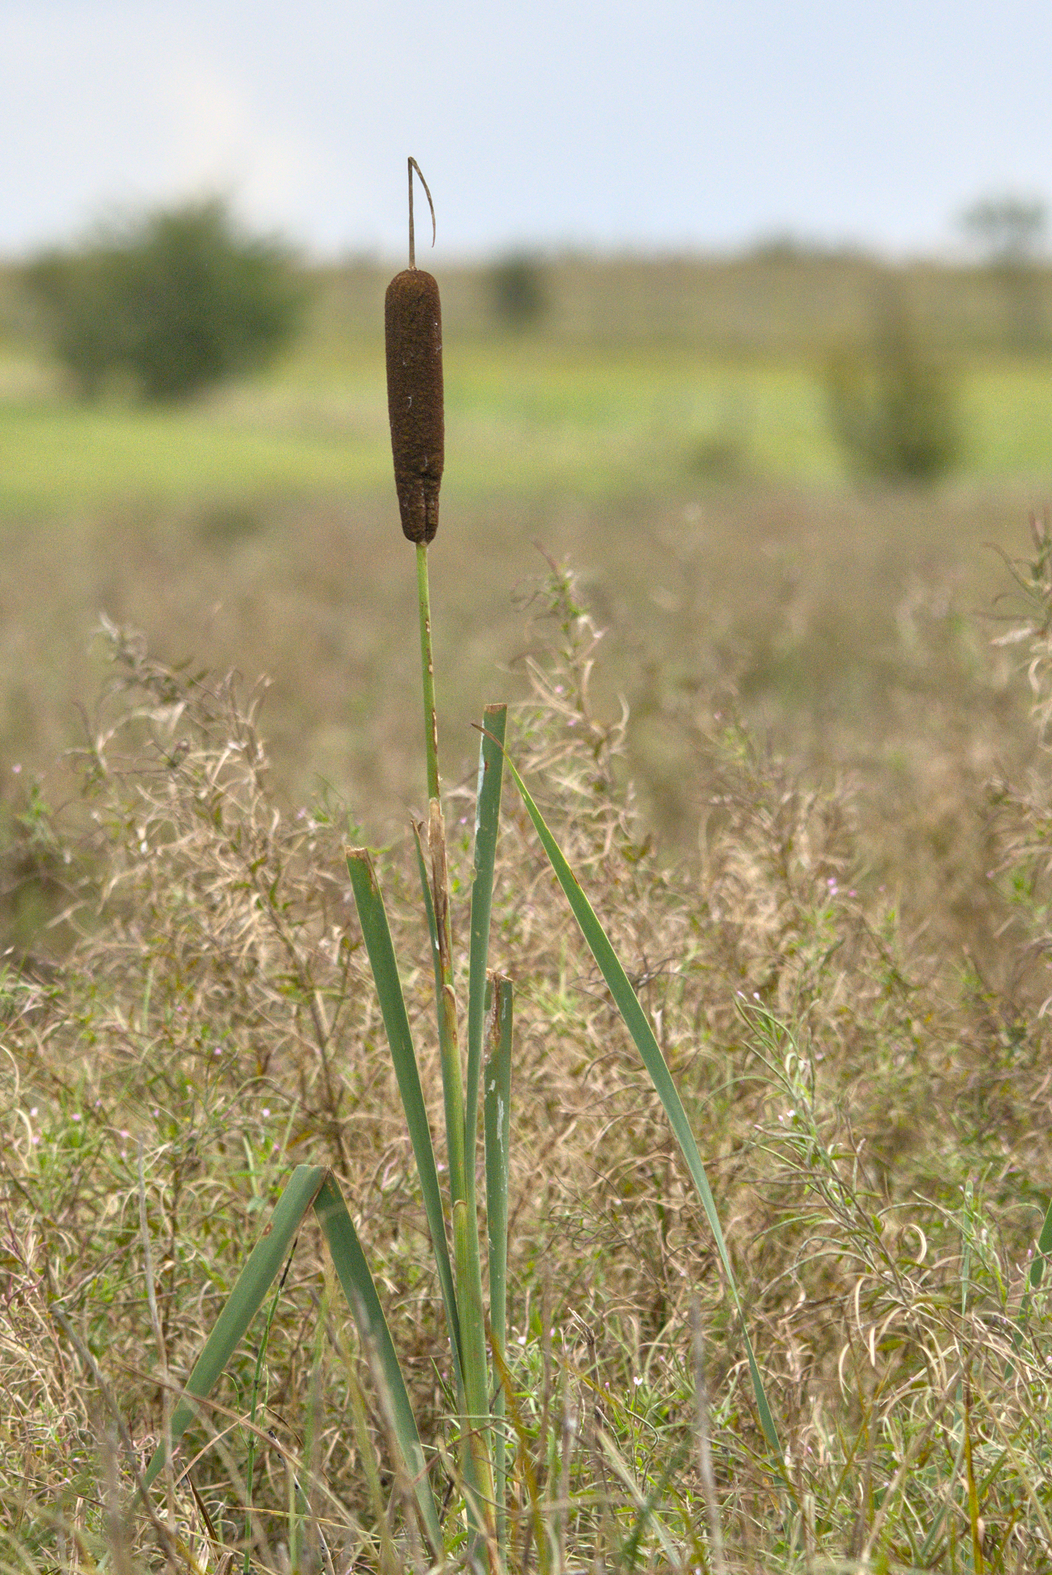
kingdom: Plantae
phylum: Tracheophyta
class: Liliopsida
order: Poales
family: Typhaceae
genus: Typha
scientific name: Typha latifolia
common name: Broadleaf cattail
